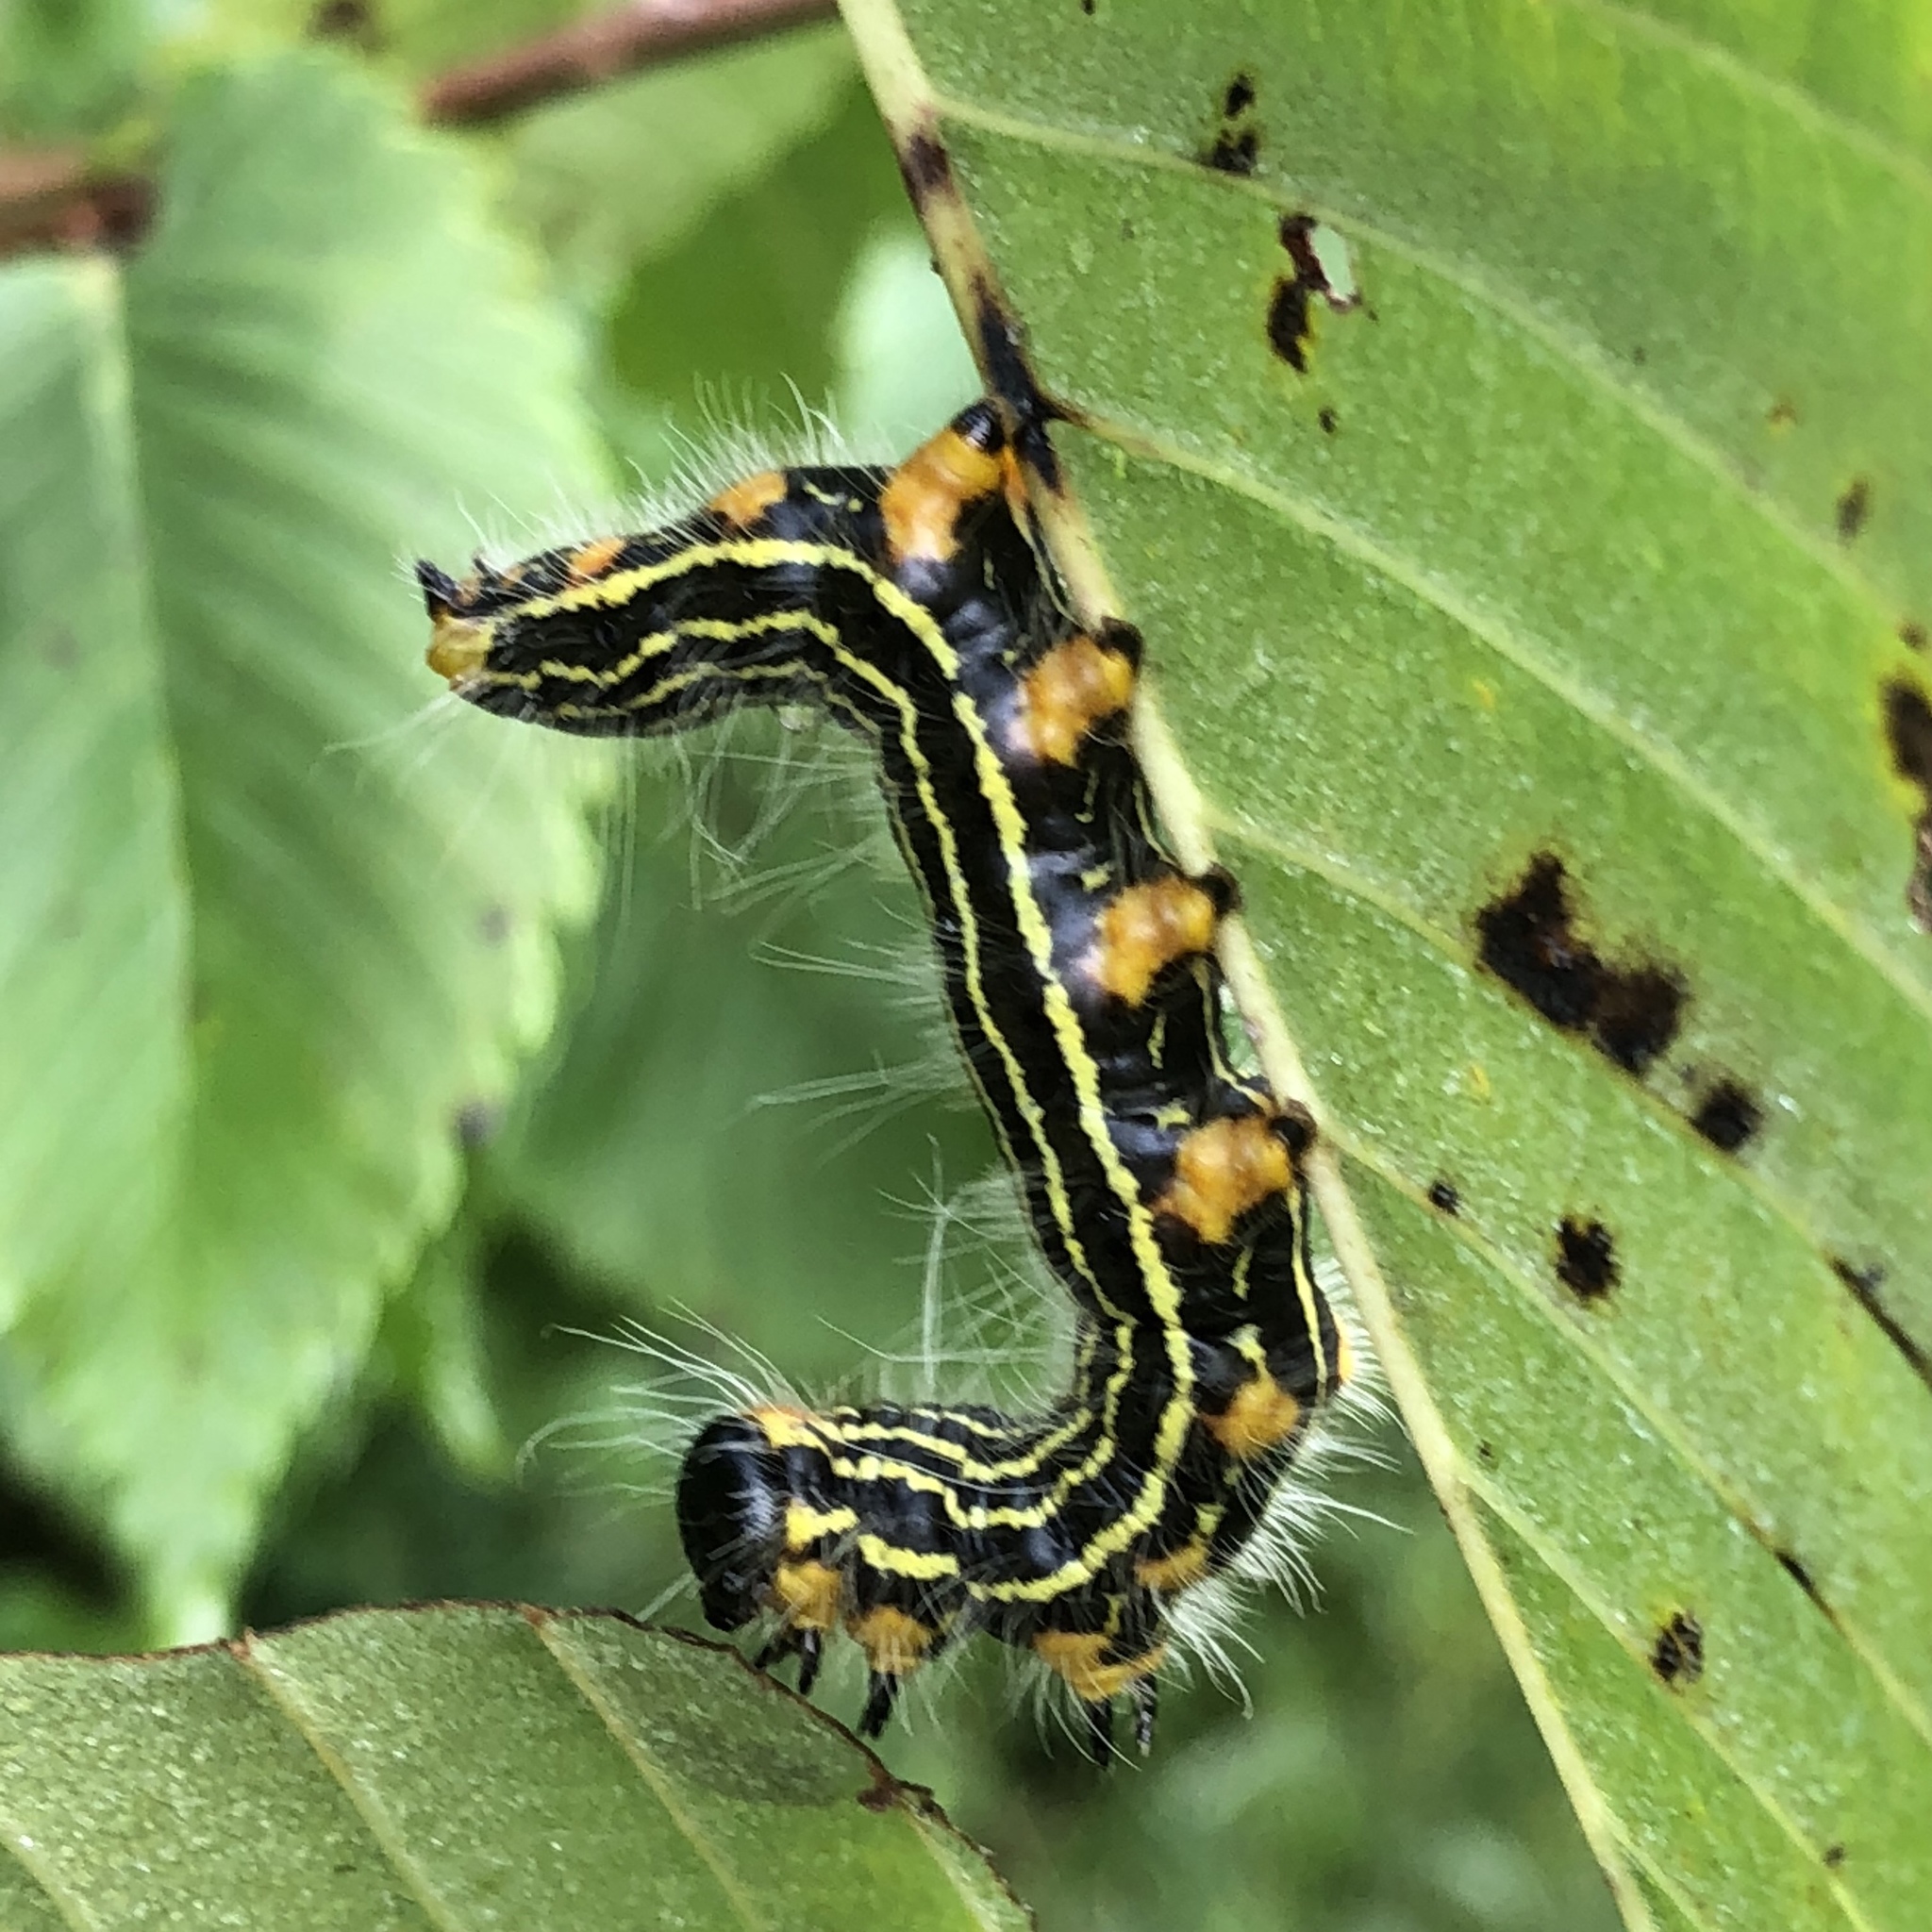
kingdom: Animalia
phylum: Arthropoda
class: Insecta
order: Lepidoptera
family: Notodontidae
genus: Datana
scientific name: Datana ministra
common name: Yellow-necked caterpillar moth
